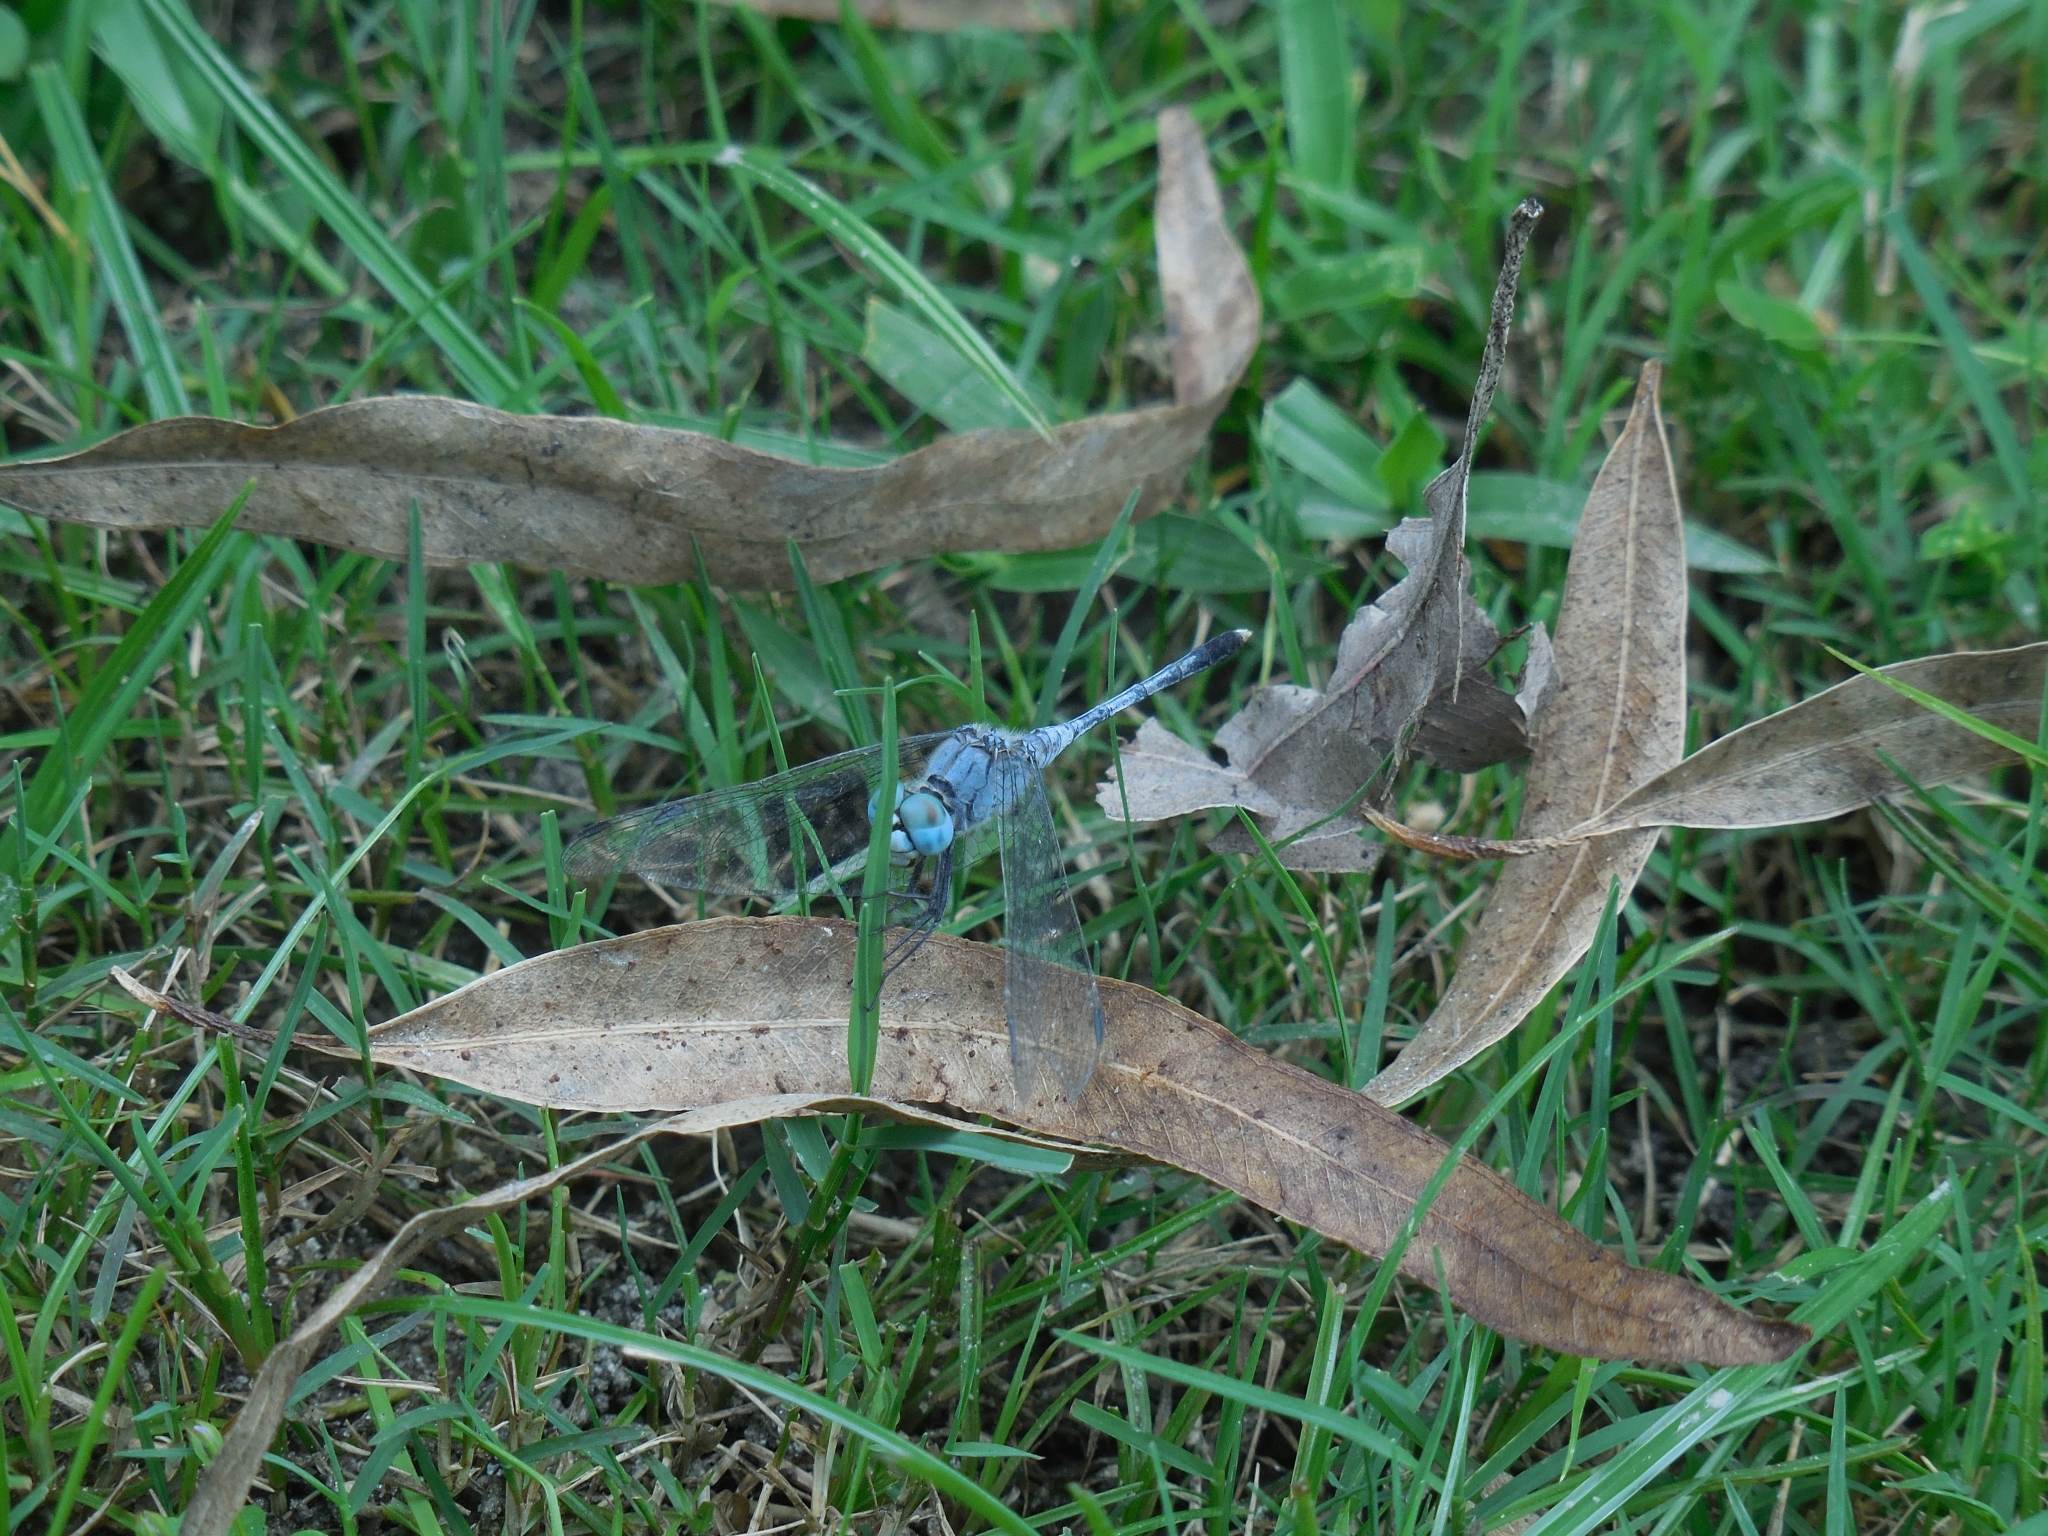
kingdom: Animalia
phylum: Arthropoda
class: Insecta
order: Odonata
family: Libellulidae
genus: Diplacodes
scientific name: Diplacodes trivialis
